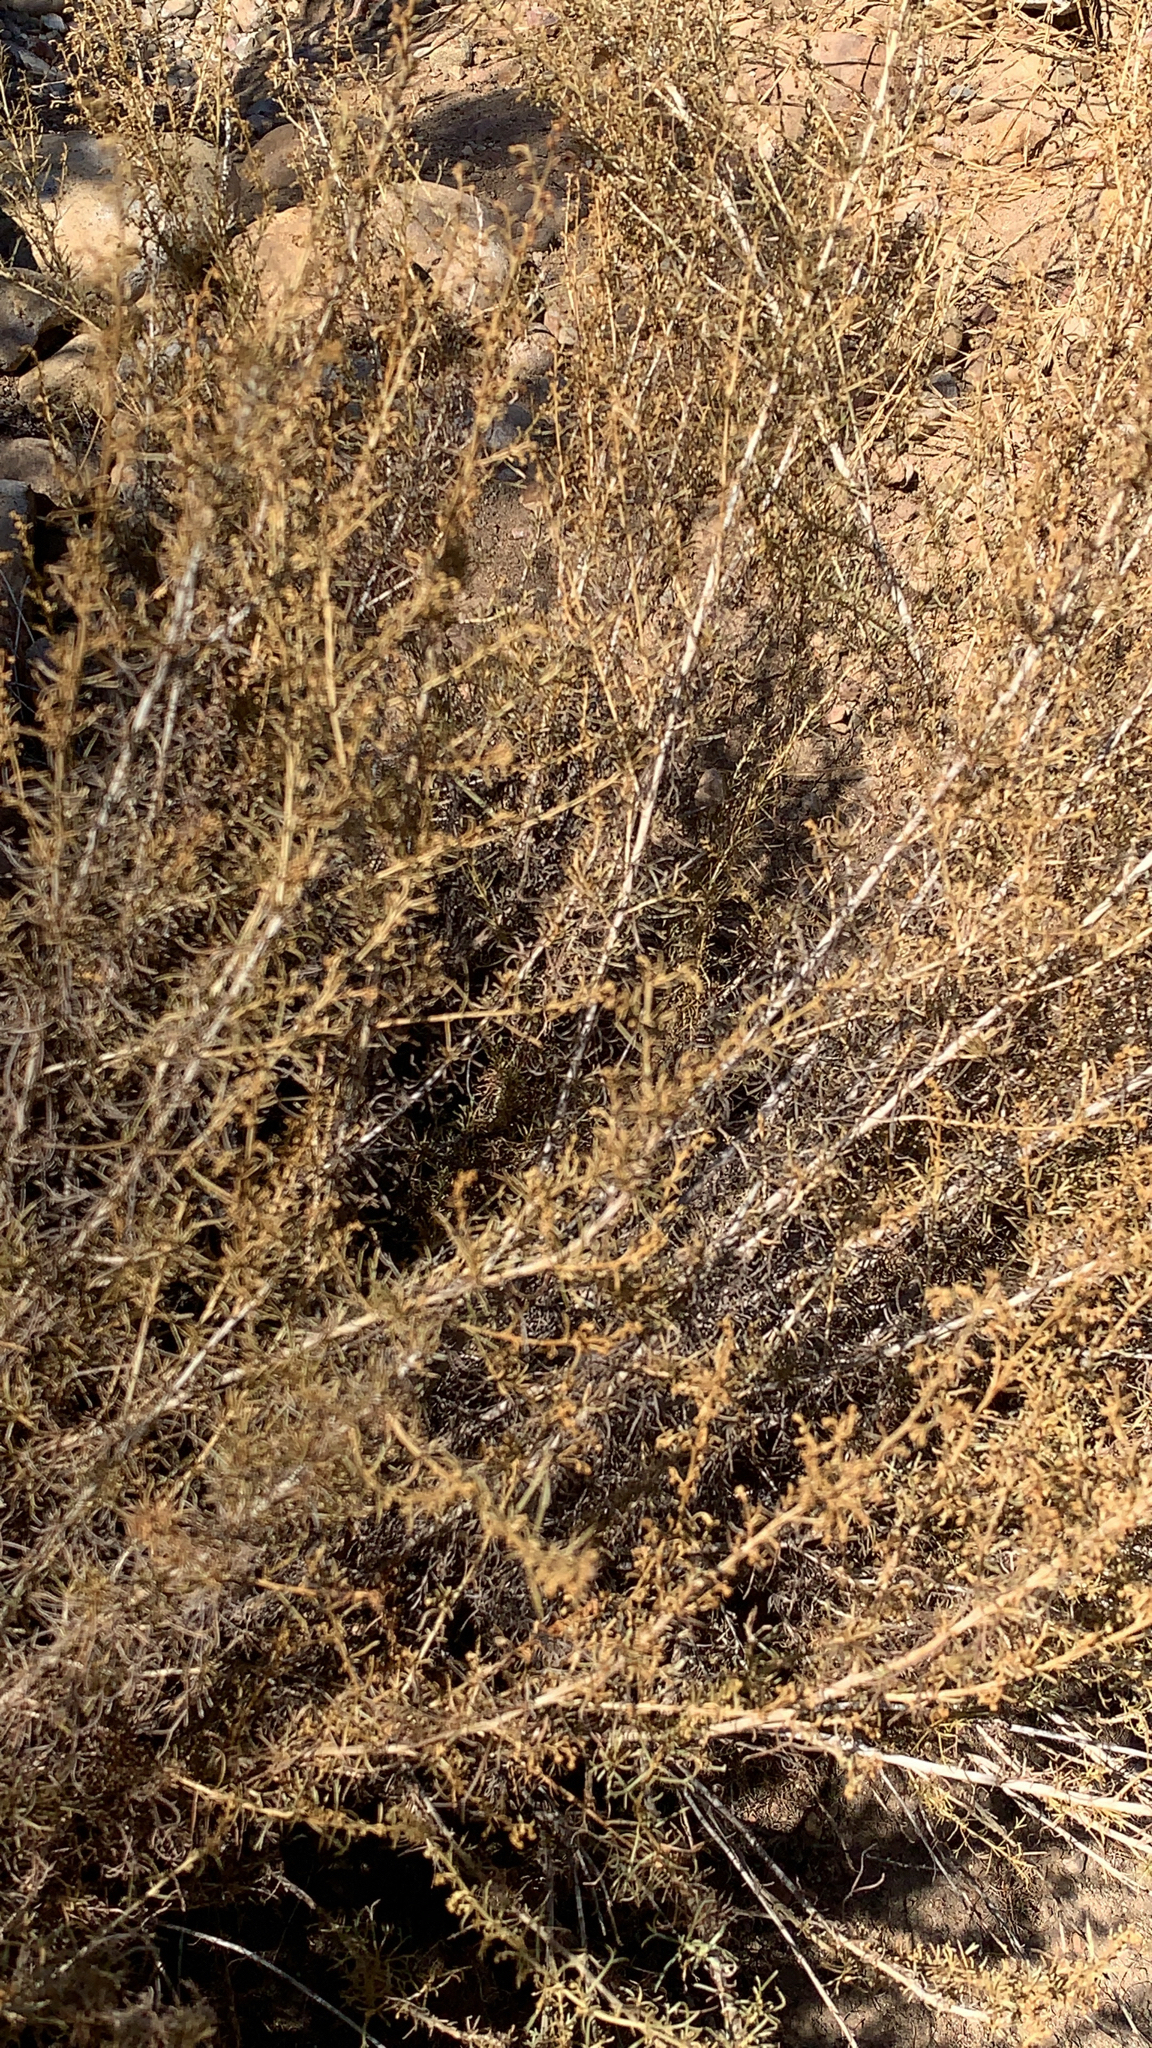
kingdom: Plantae
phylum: Tracheophyta
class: Magnoliopsida
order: Asterales
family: Asteraceae
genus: Artemisia
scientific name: Artemisia californica
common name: California sagebrush
